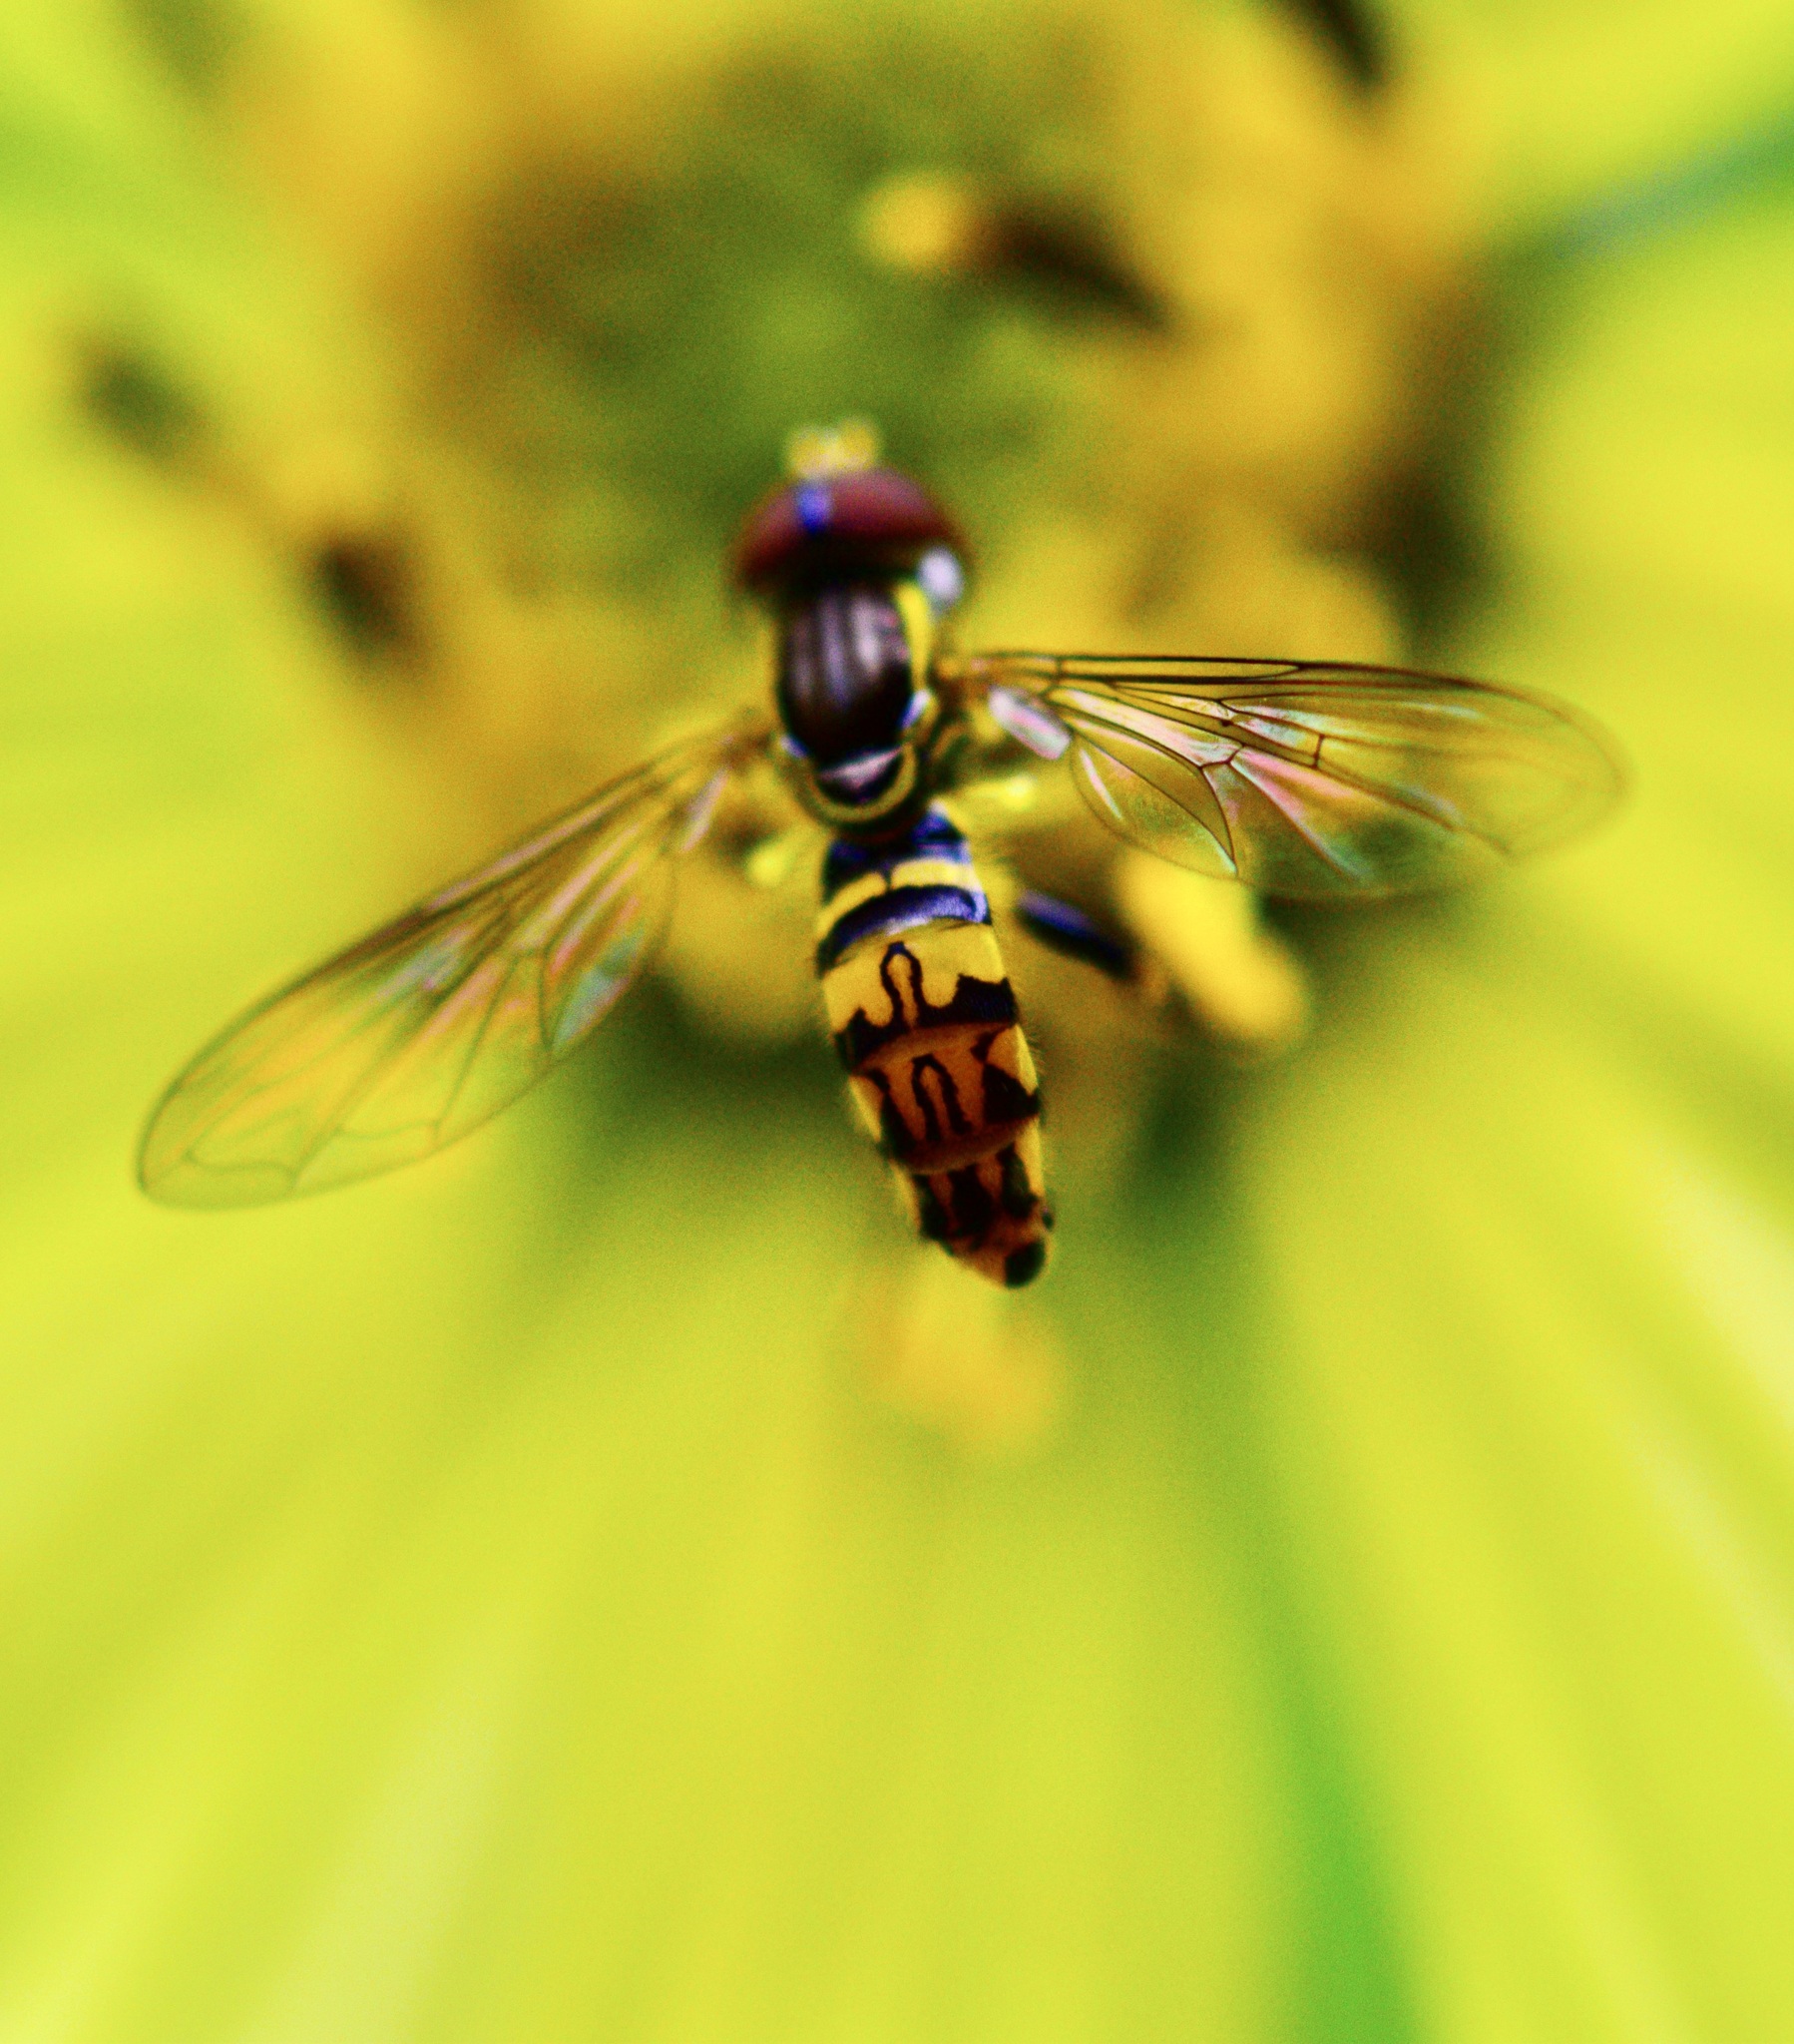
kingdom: Animalia
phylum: Arthropoda
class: Insecta
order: Diptera
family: Syrphidae
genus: Toxomerus
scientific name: Toxomerus geminatus
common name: Eastern calligrapher
